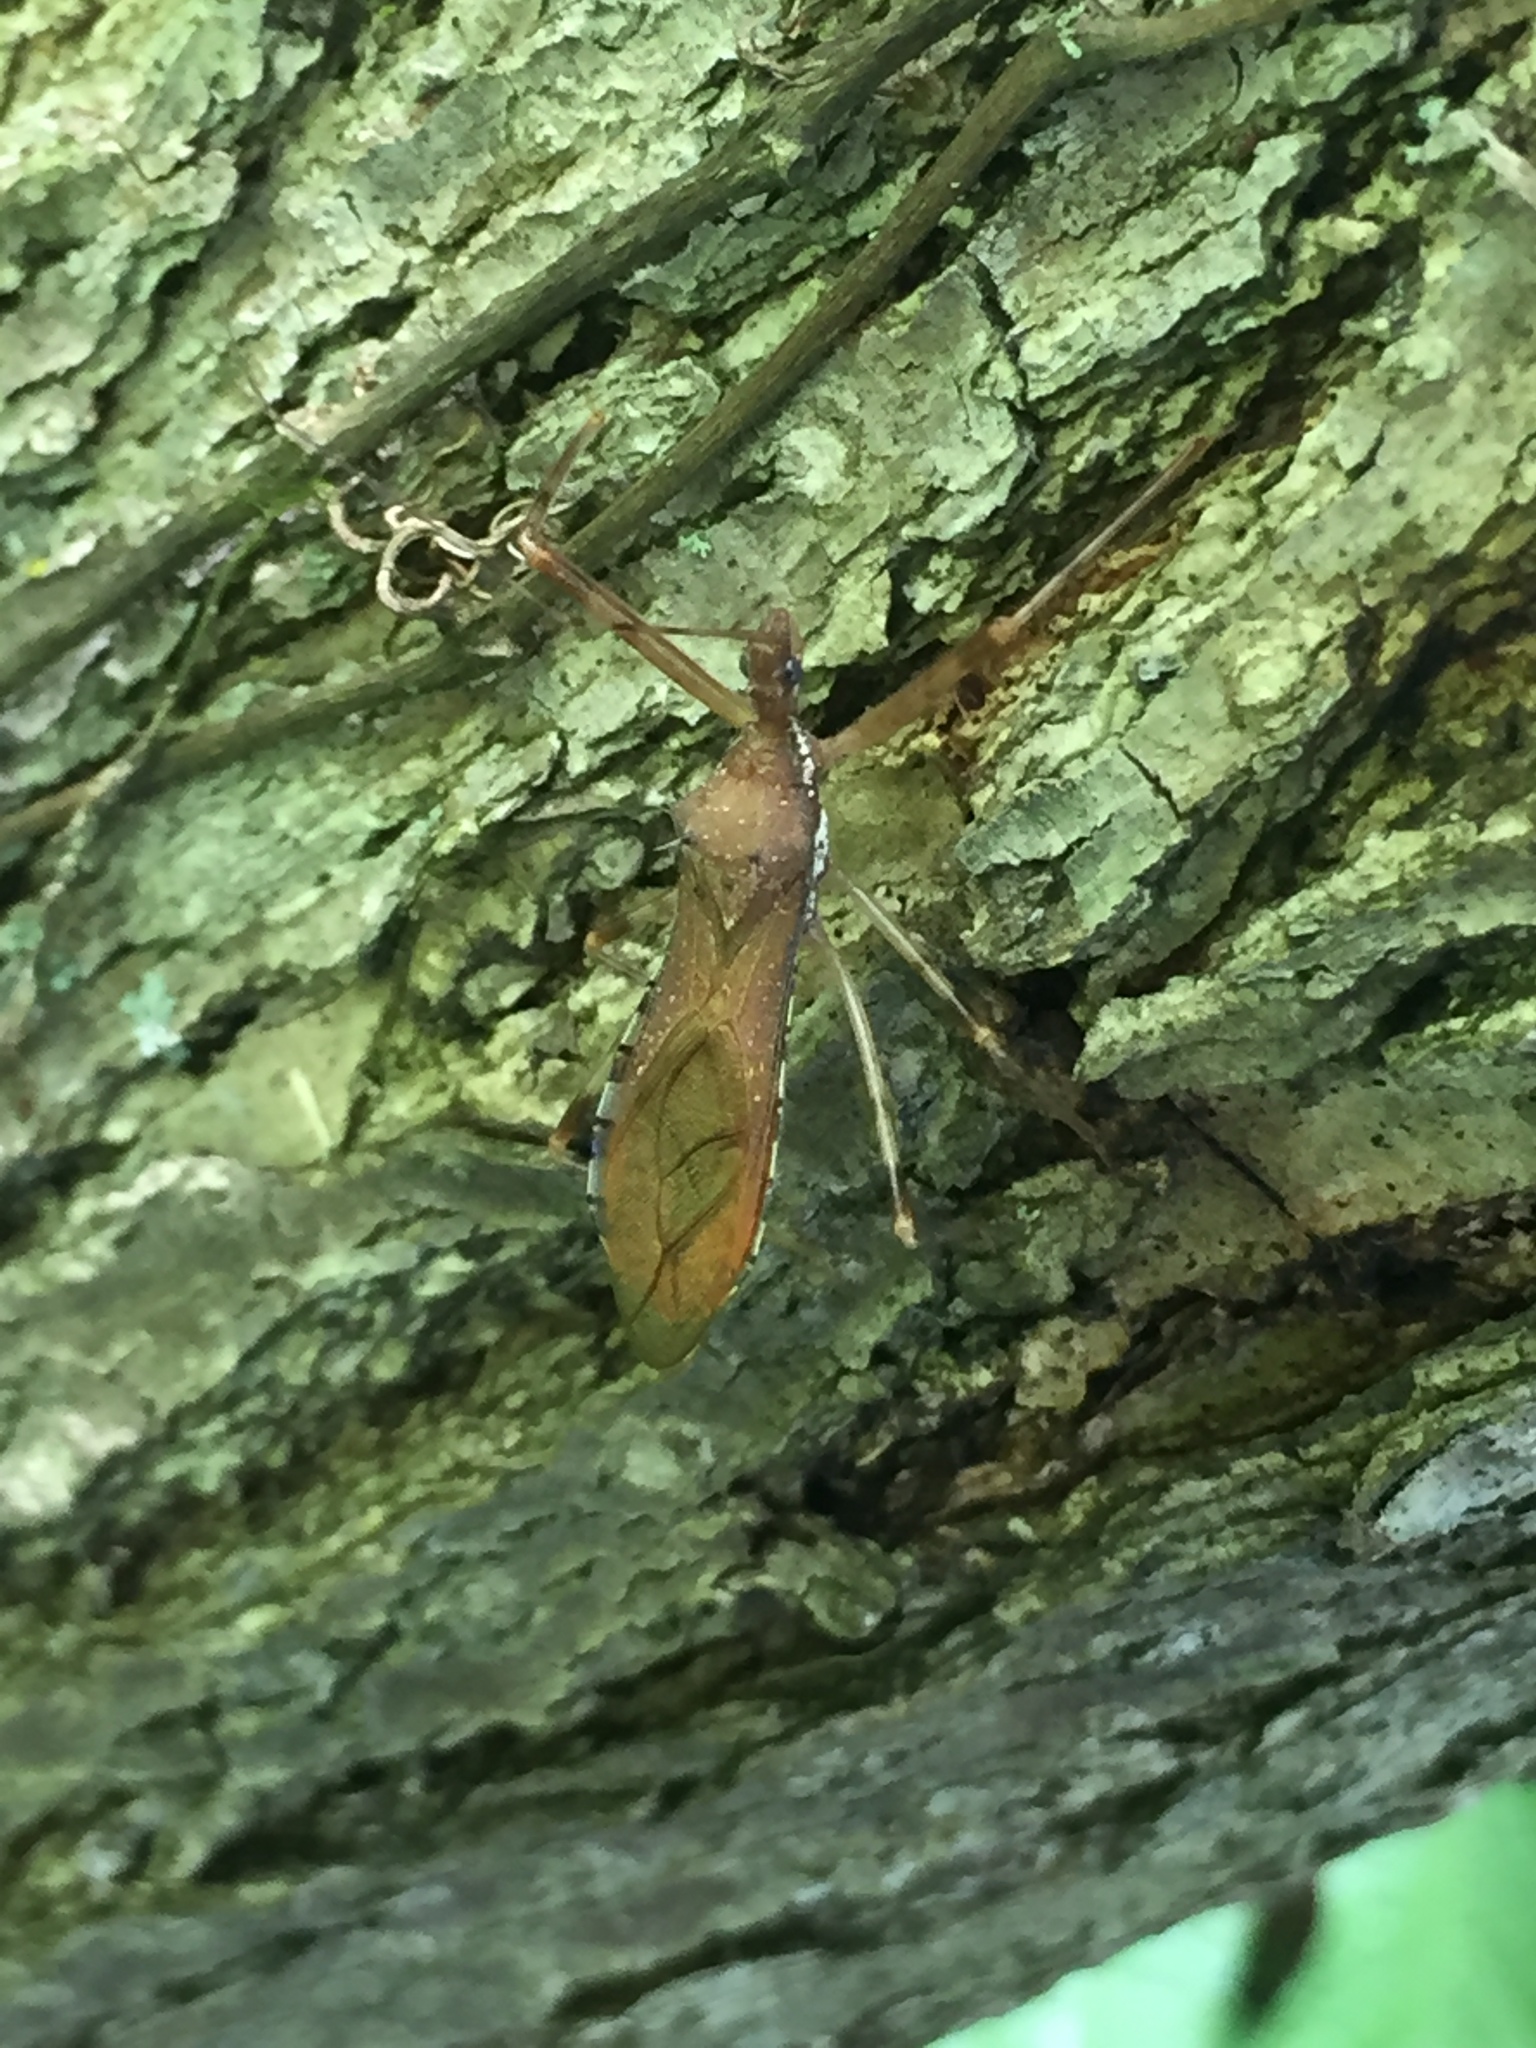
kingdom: Animalia
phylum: Arthropoda
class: Insecta
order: Hemiptera
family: Reduviidae
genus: Rocconota
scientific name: Rocconota annulicornis
